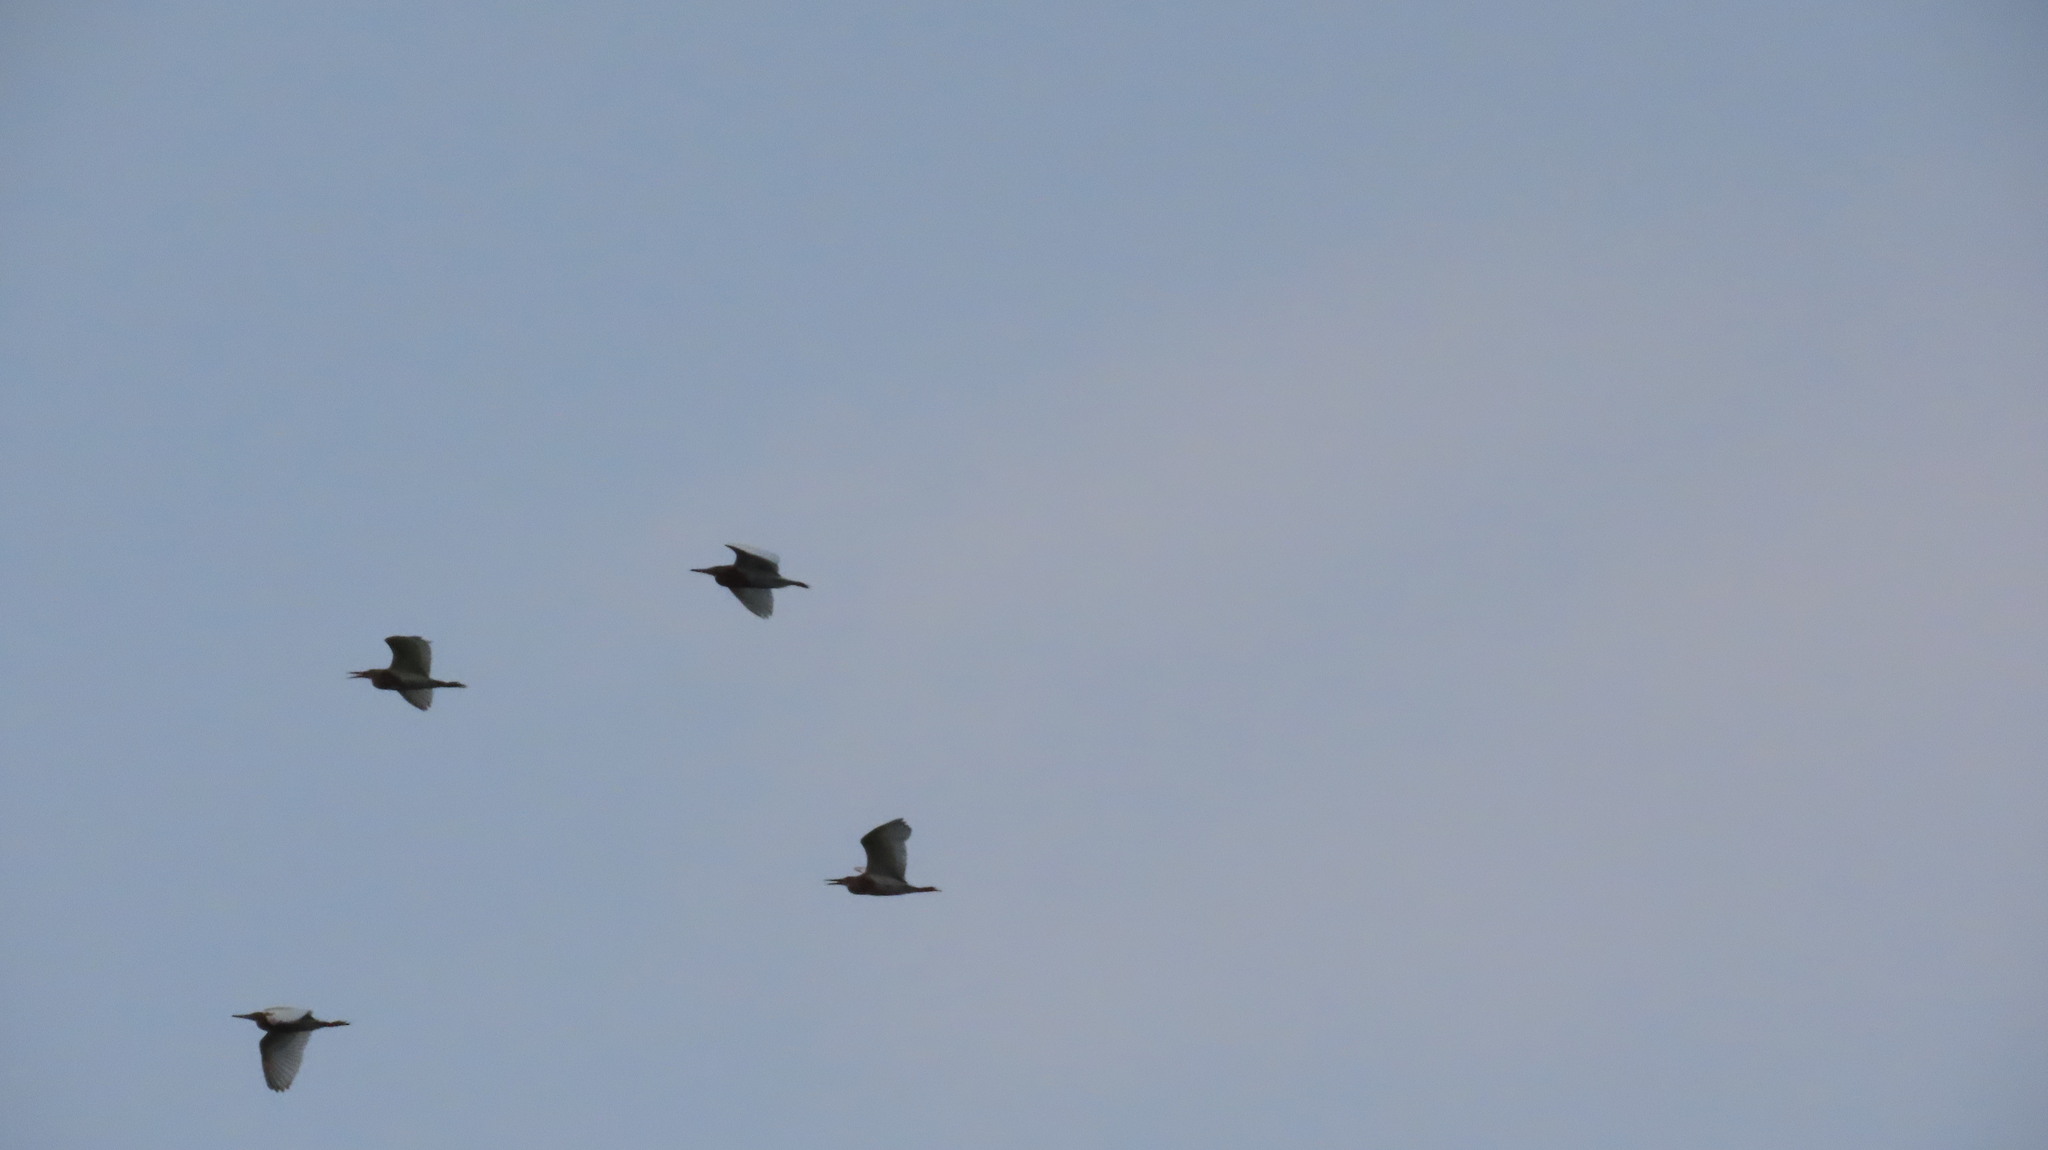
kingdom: Animalia
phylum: Chordata
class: Aves
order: Pelecaniformes
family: Ardeidae
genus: Ardeola
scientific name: Ardeola grayii
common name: Indian pond heron
